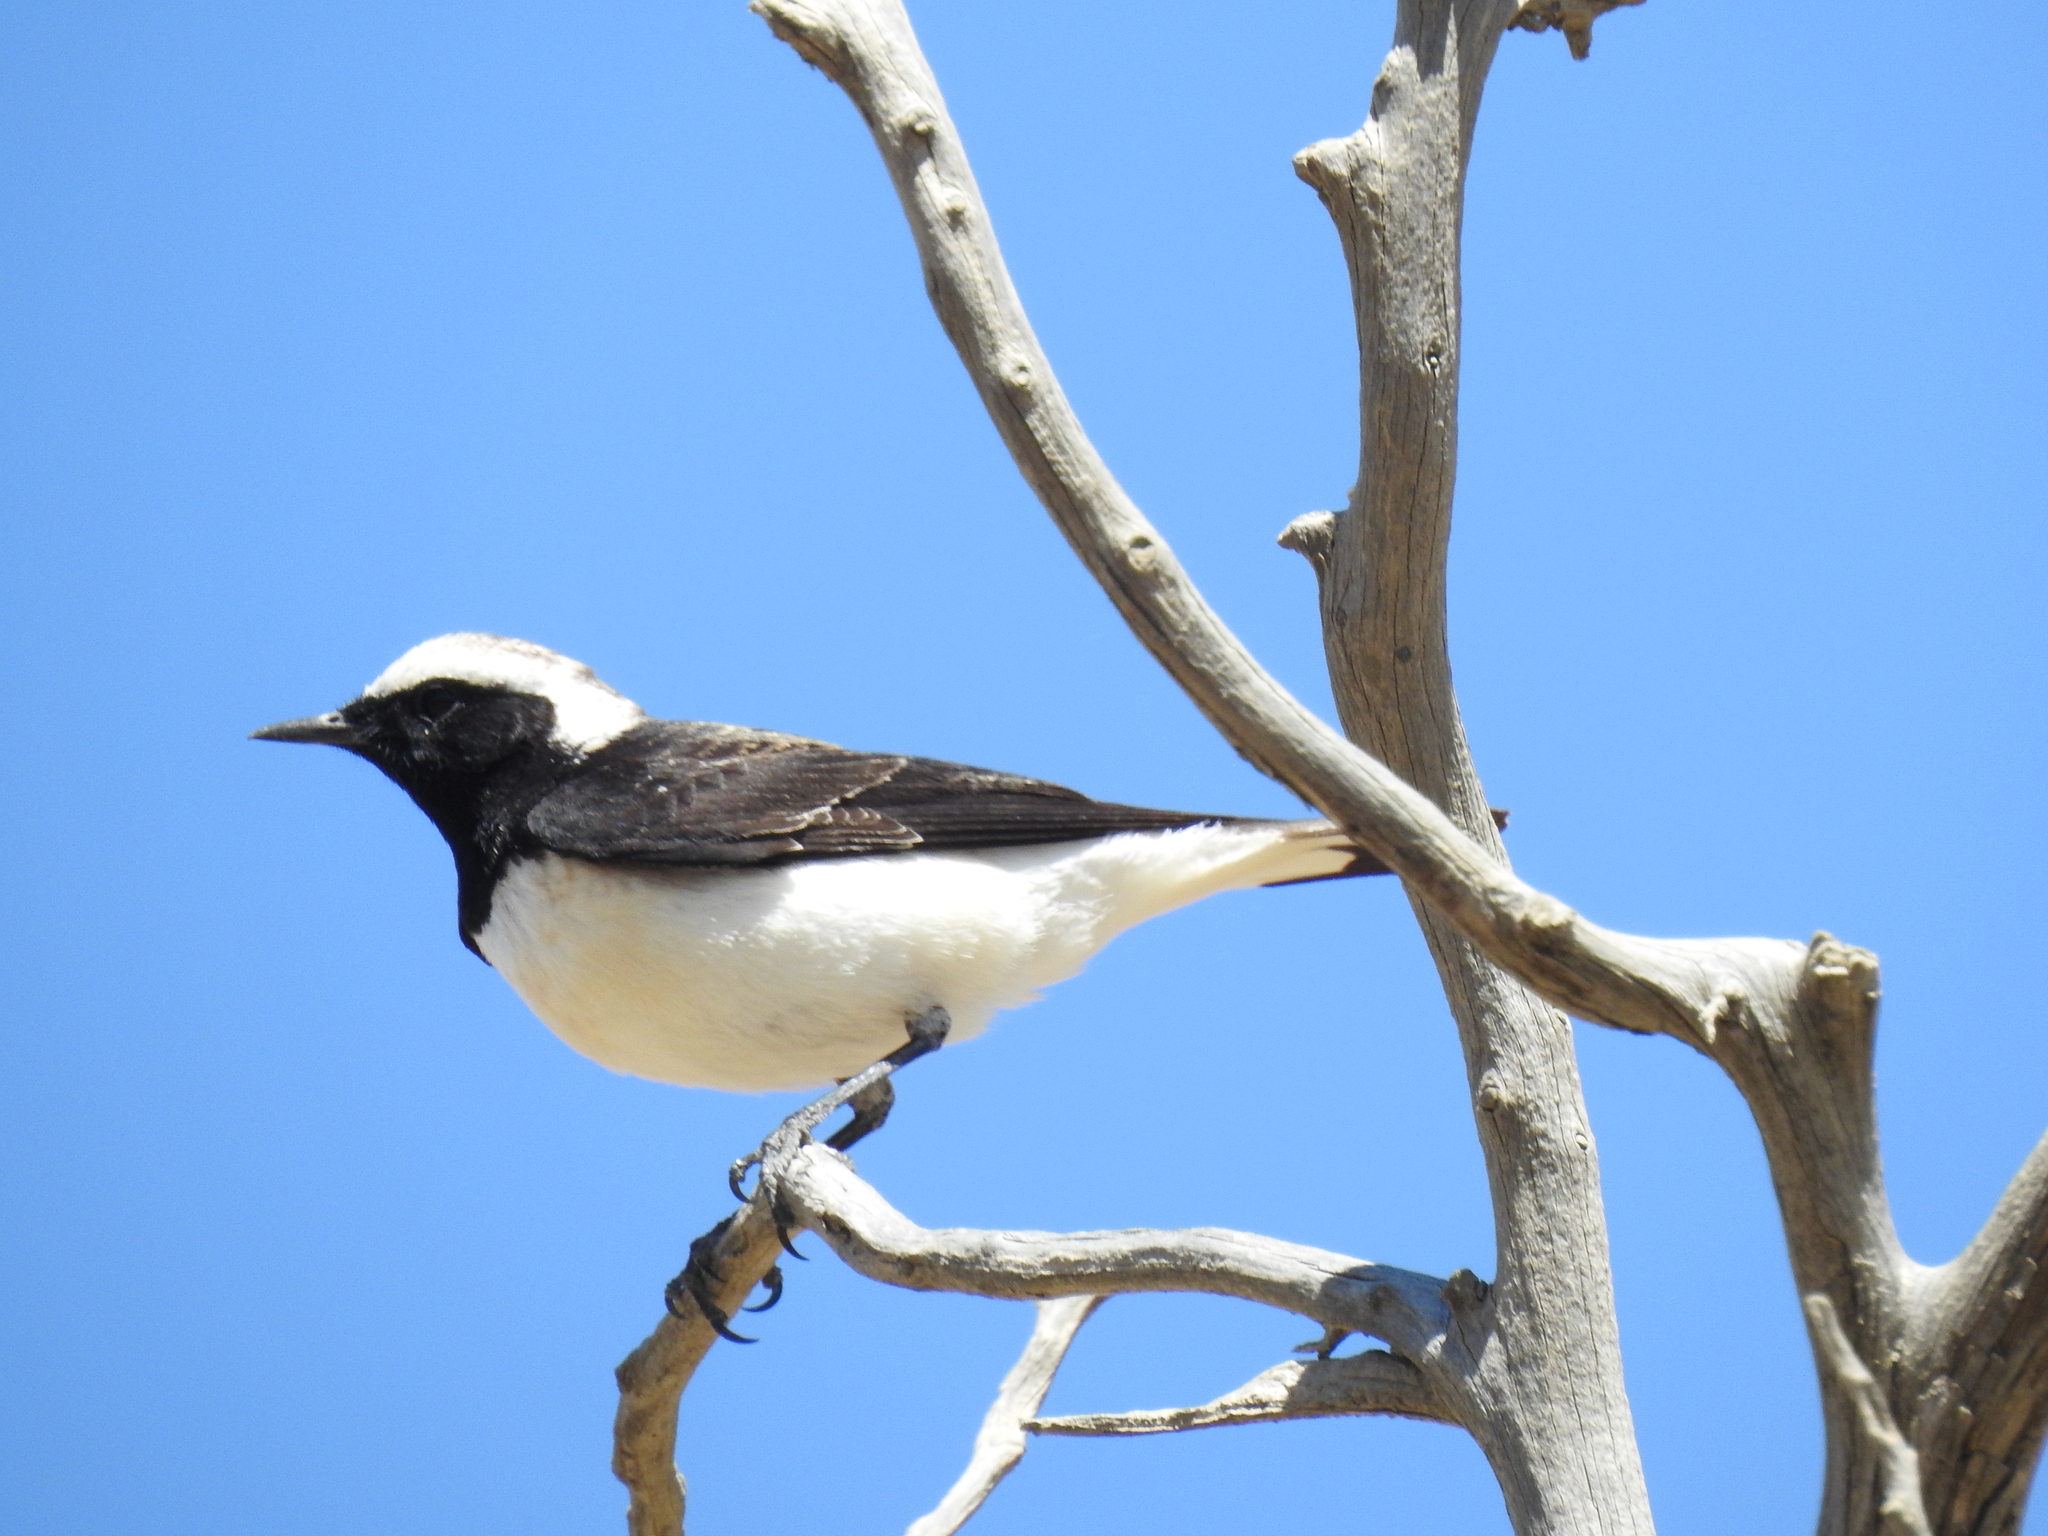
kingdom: Animalia
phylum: Chordata
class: Aves
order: Passeriformes
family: Muscicapidae
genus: Oenanthe
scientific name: Oenanthe lugentoides
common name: Arabian wheatear
